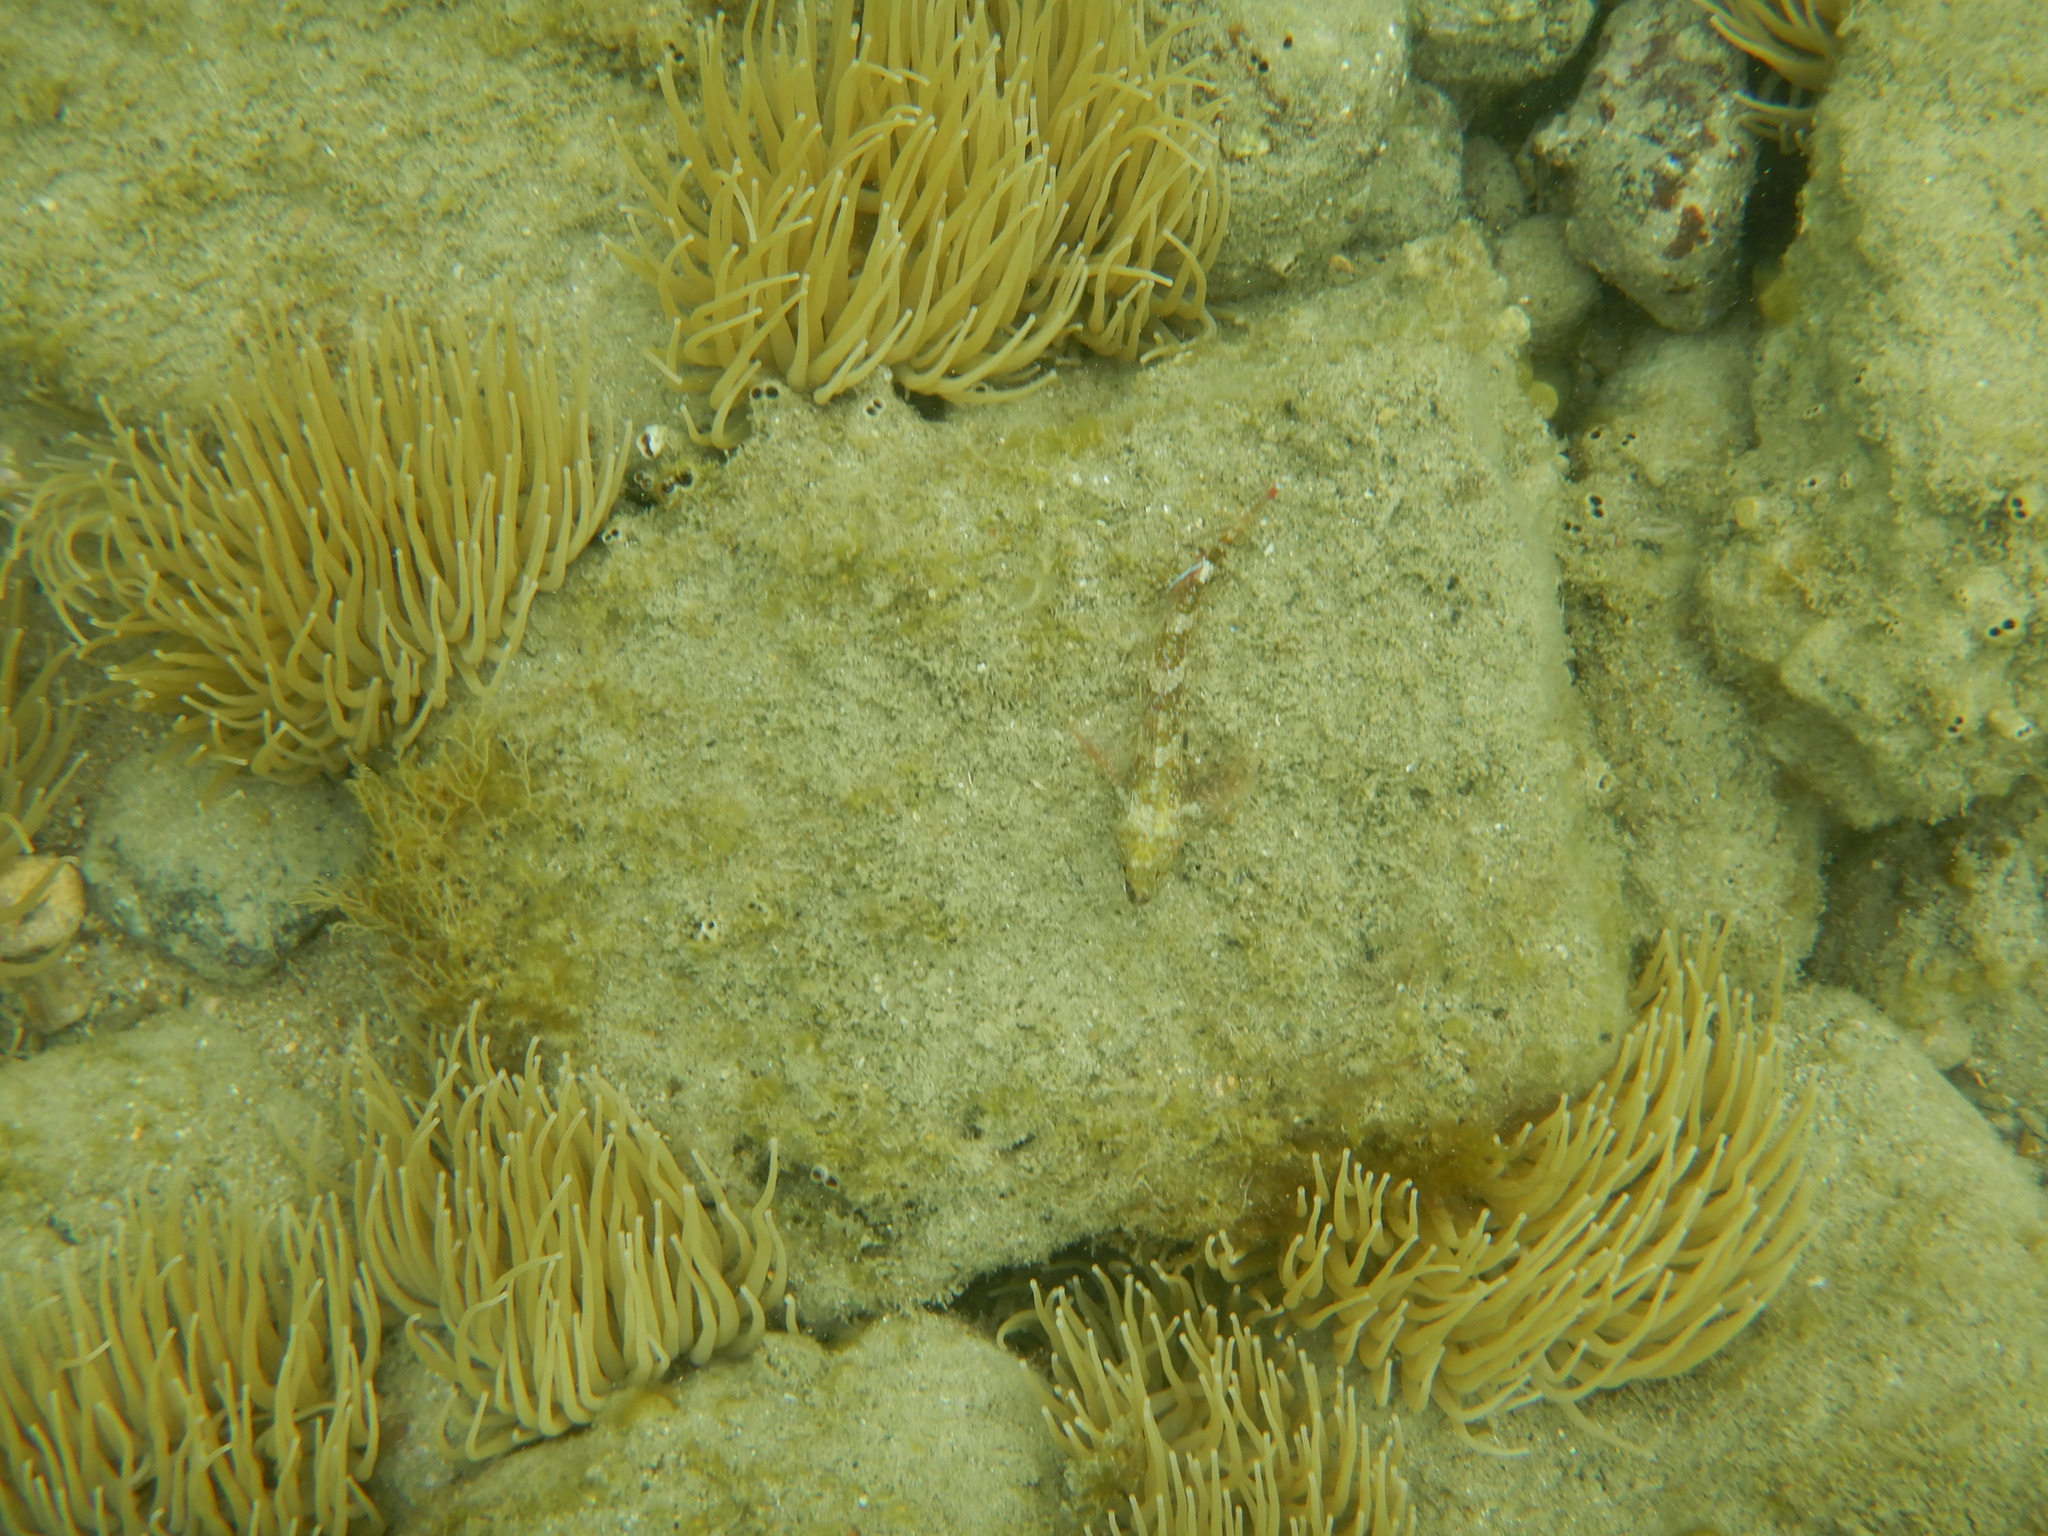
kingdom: Animalia
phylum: Chordata
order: Perciformes
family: Tripterygiidae
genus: Tripterygion
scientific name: Tripterygion tripteronotum
